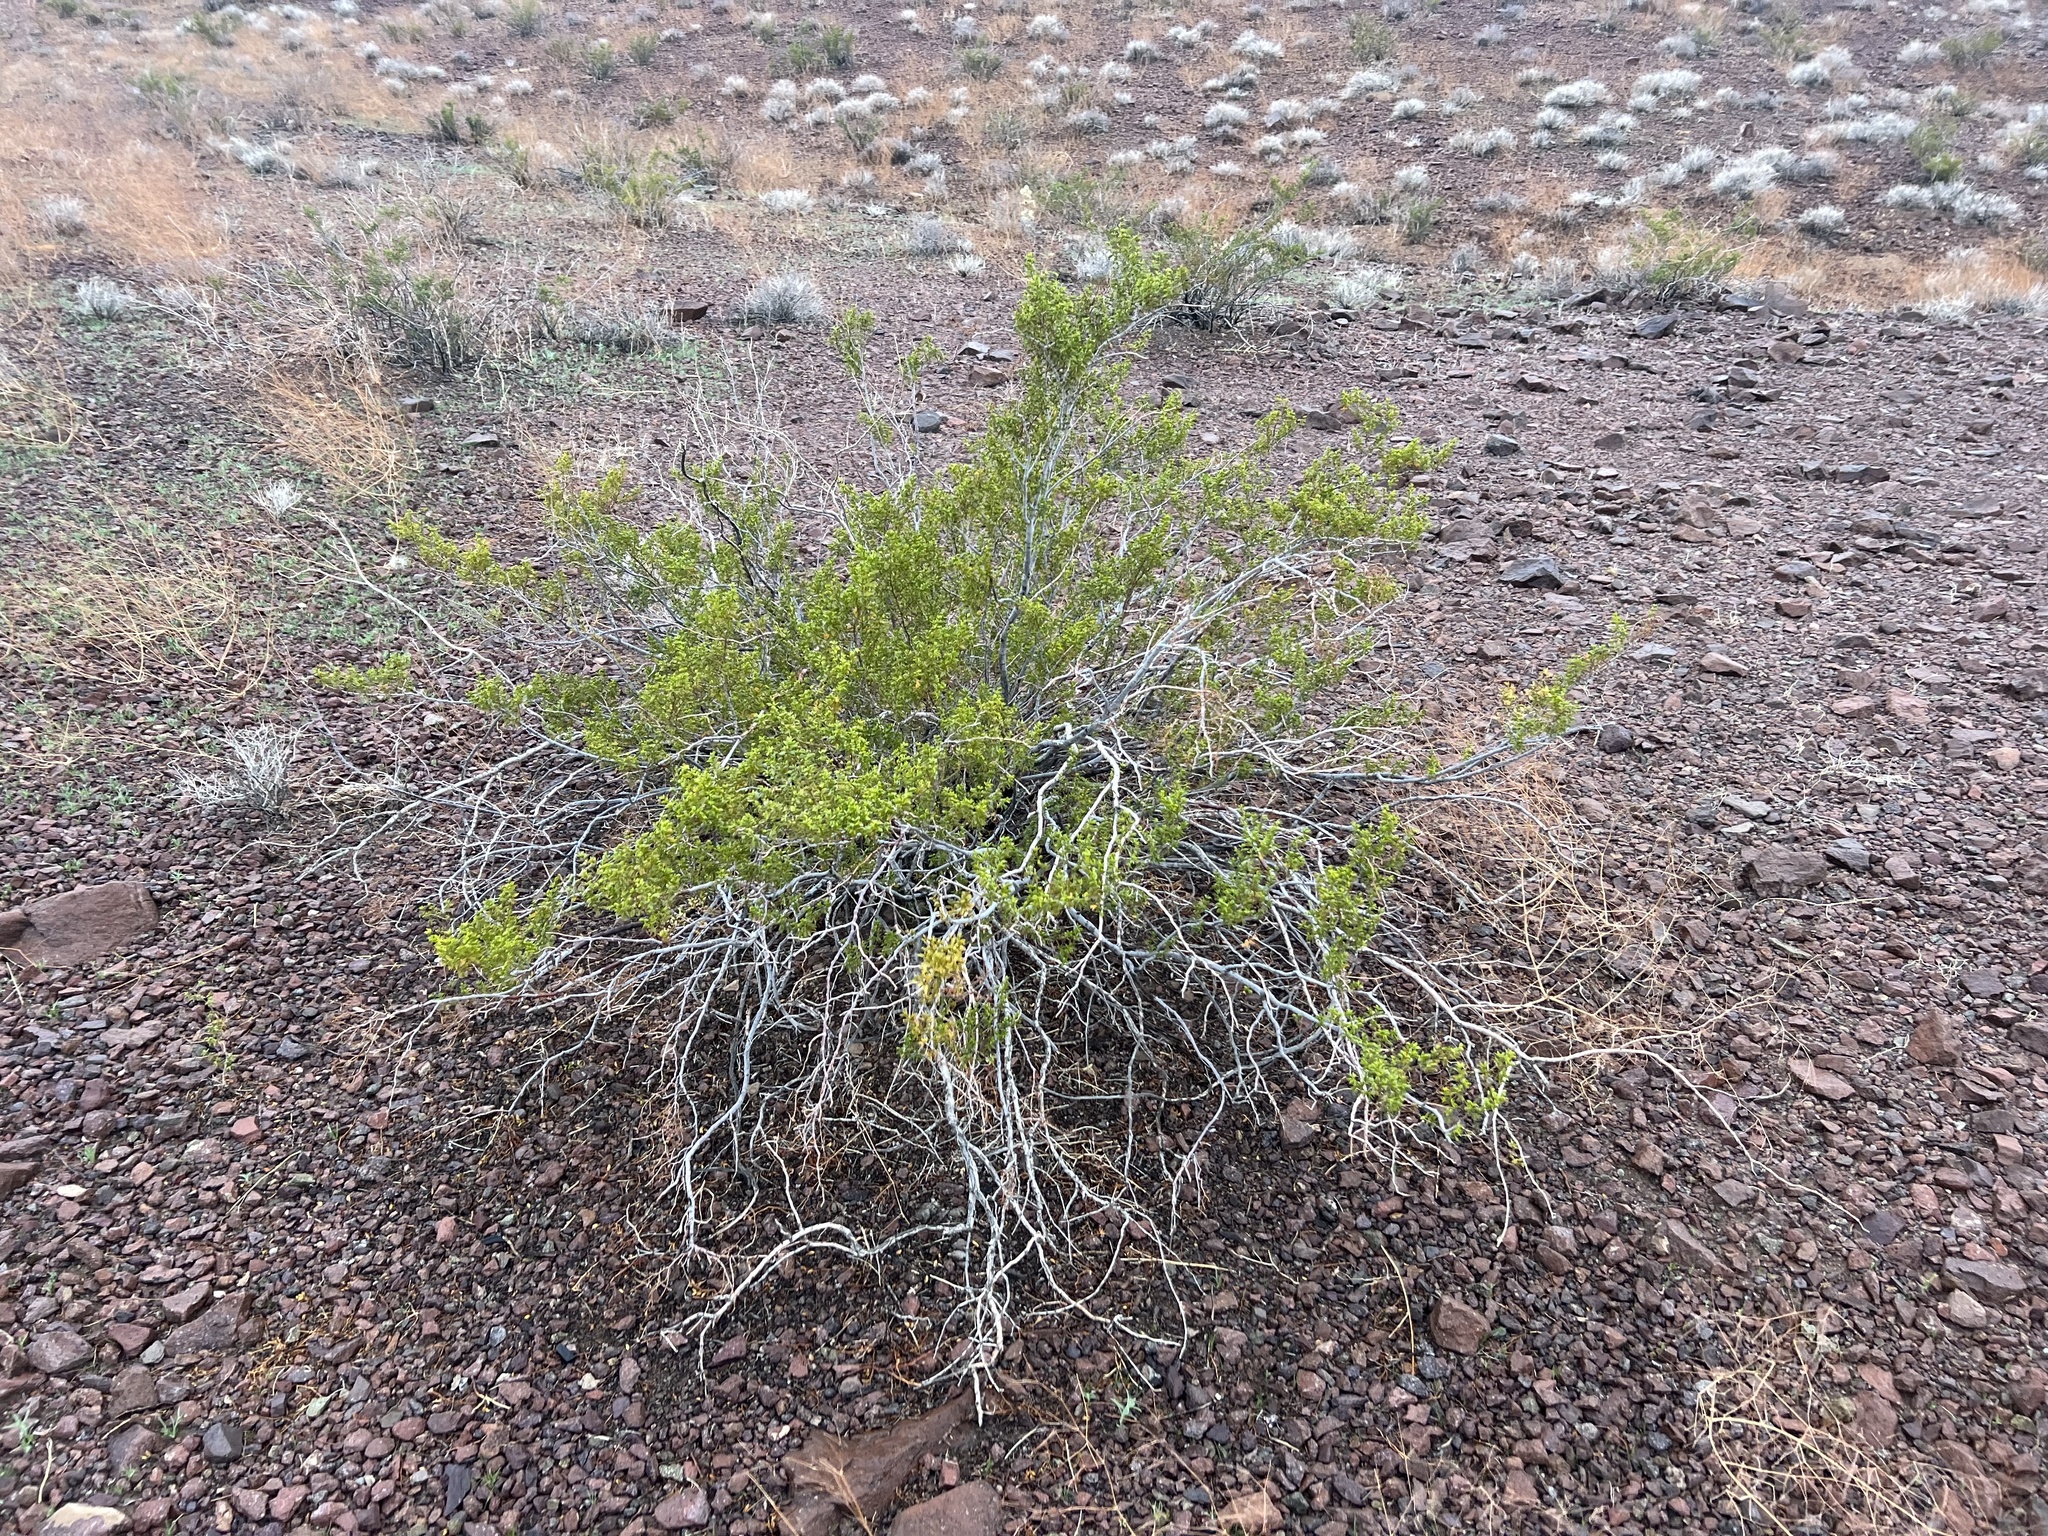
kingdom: Plantae
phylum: Tracheophyta
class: Magnoliopsida
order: Zygophyllales
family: Zygophyllaceae
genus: Larrea
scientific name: Larrea tridentata
